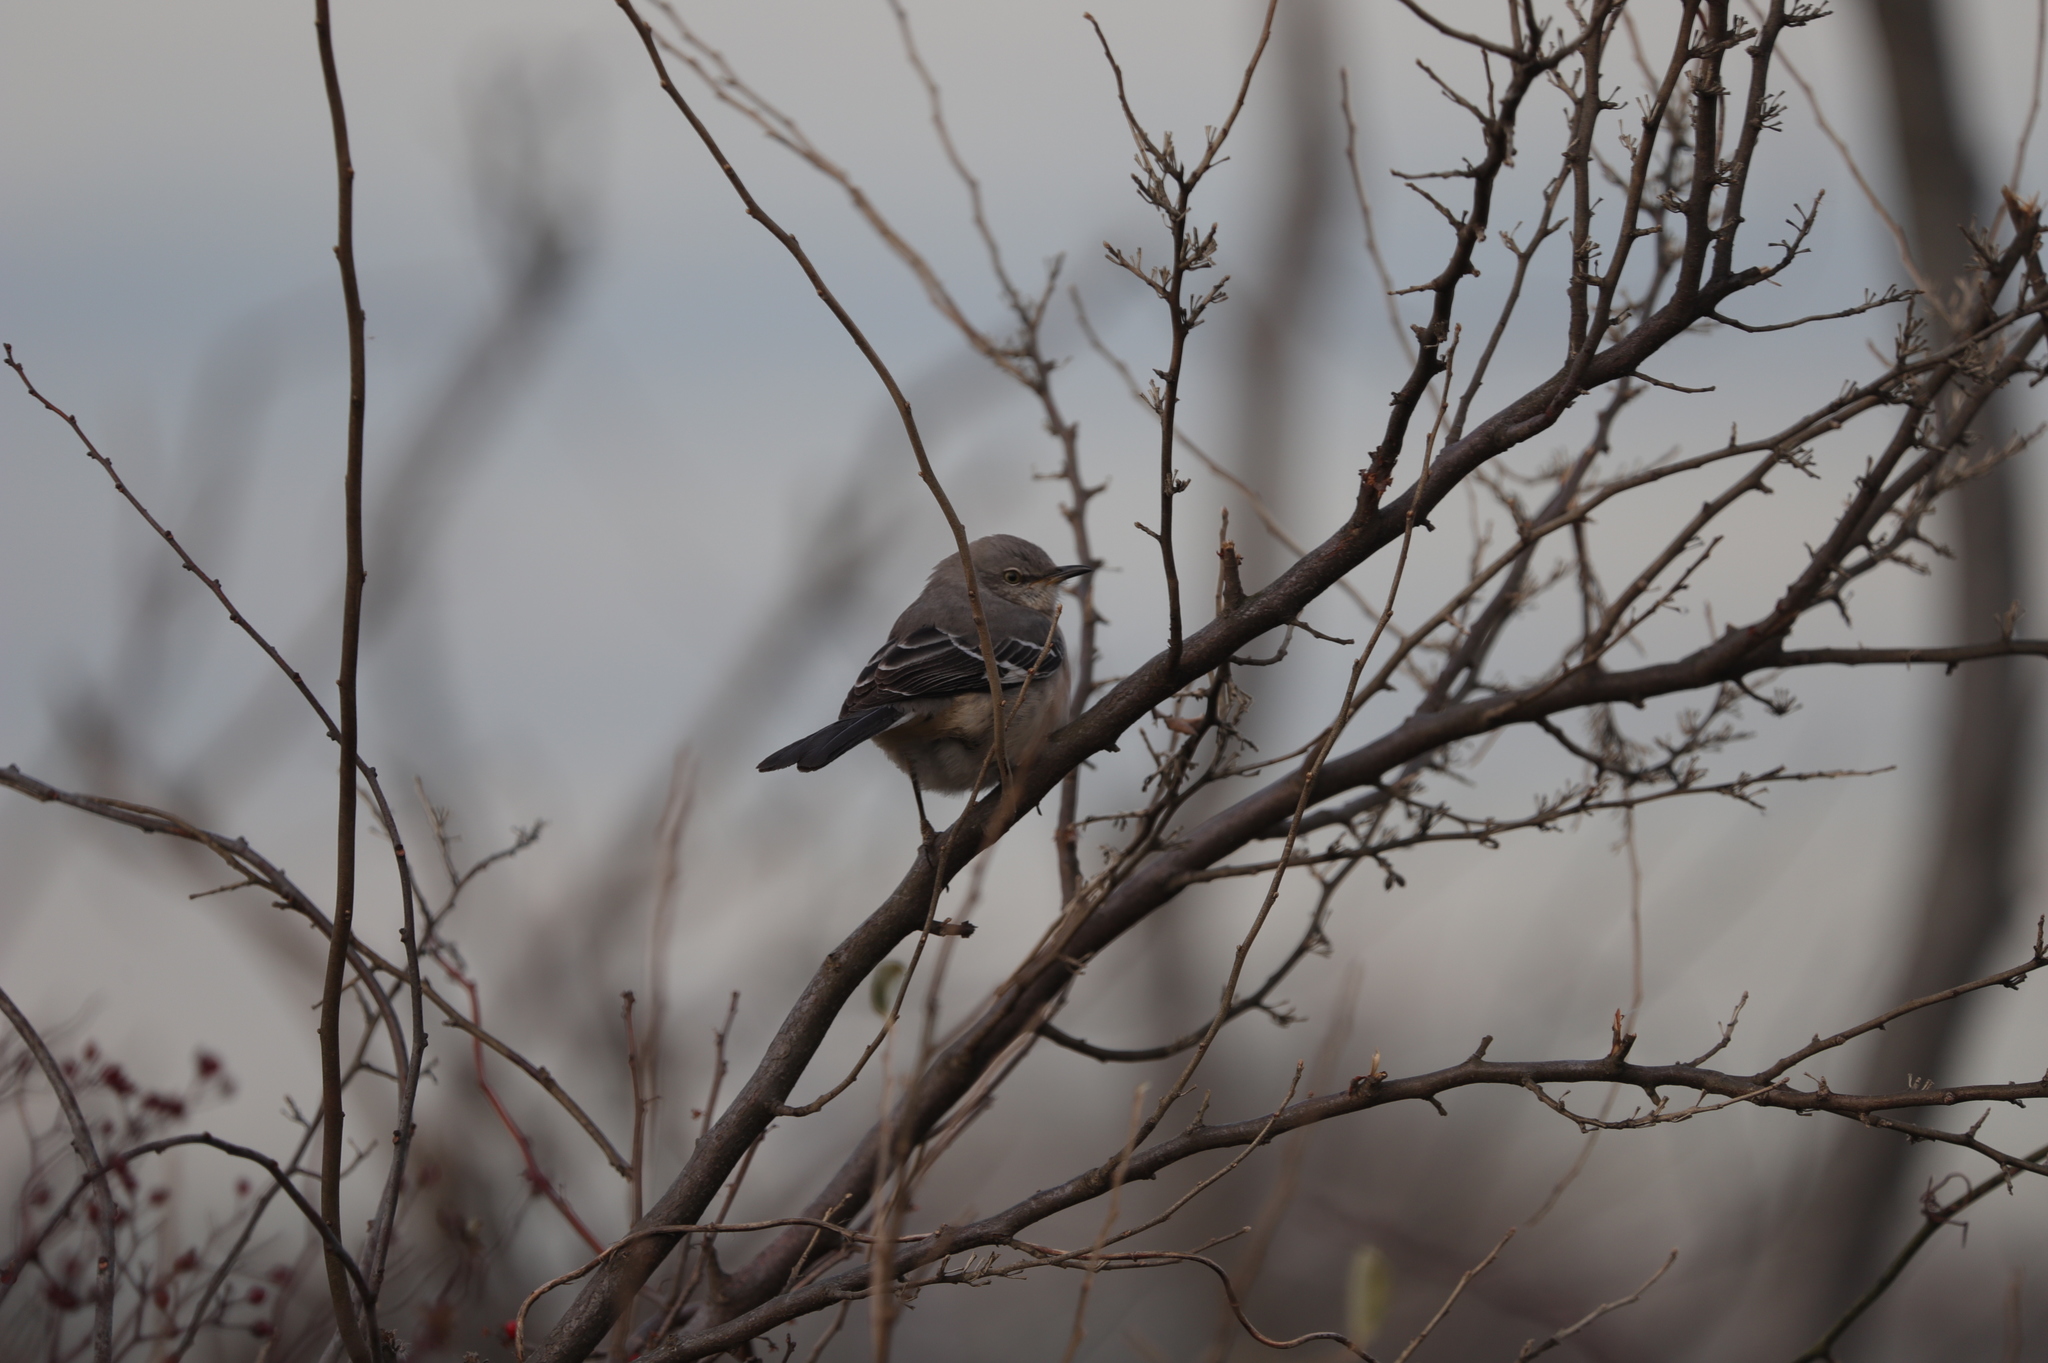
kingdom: Animalia
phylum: Chordata
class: Aves
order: Passeriformes
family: Mimidae
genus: Mimus
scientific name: Mimus polyglottos
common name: Northern mockingbird
